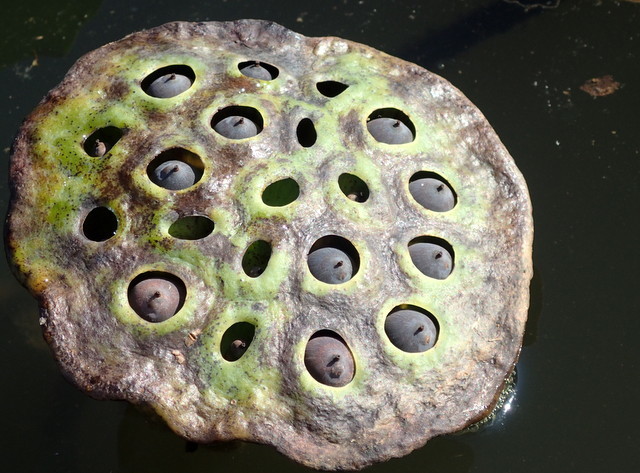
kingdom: Plantae
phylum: Tracheophyta
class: Magnoliopsida
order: Proteales
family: Nelumbonaceae
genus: Nelumbo
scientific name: Nelumbo lutea
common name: American lotus
